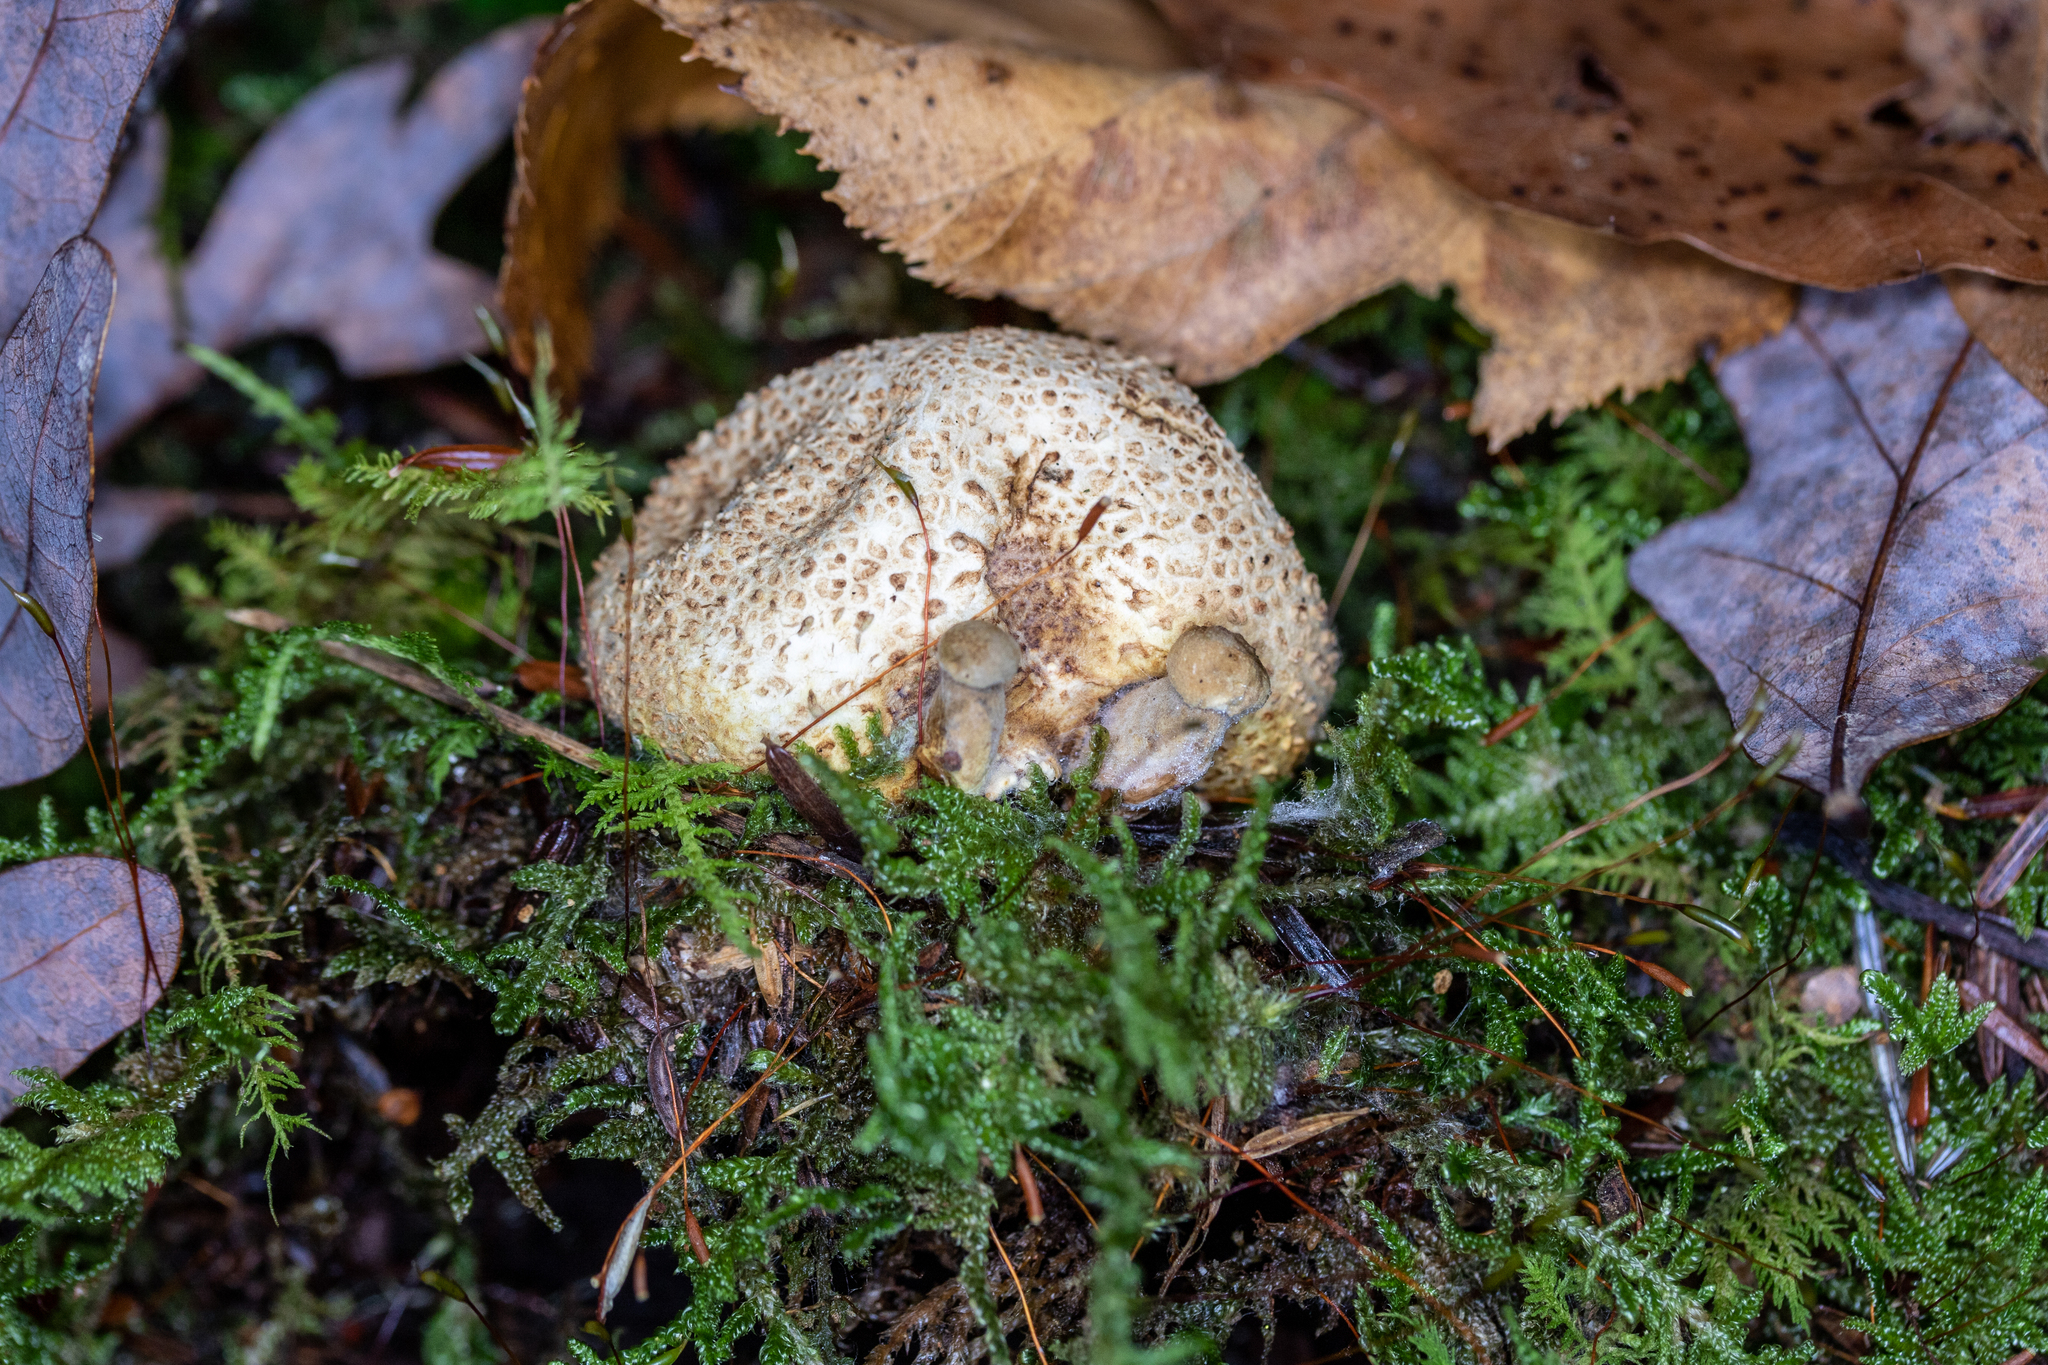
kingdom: Fungi
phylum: Basidiomycota
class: Agaricomycetes
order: Boletales
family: Boletaceae
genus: Pseudoboletus
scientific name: Pseudoboletus parasiticus
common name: Parasitic bolete
